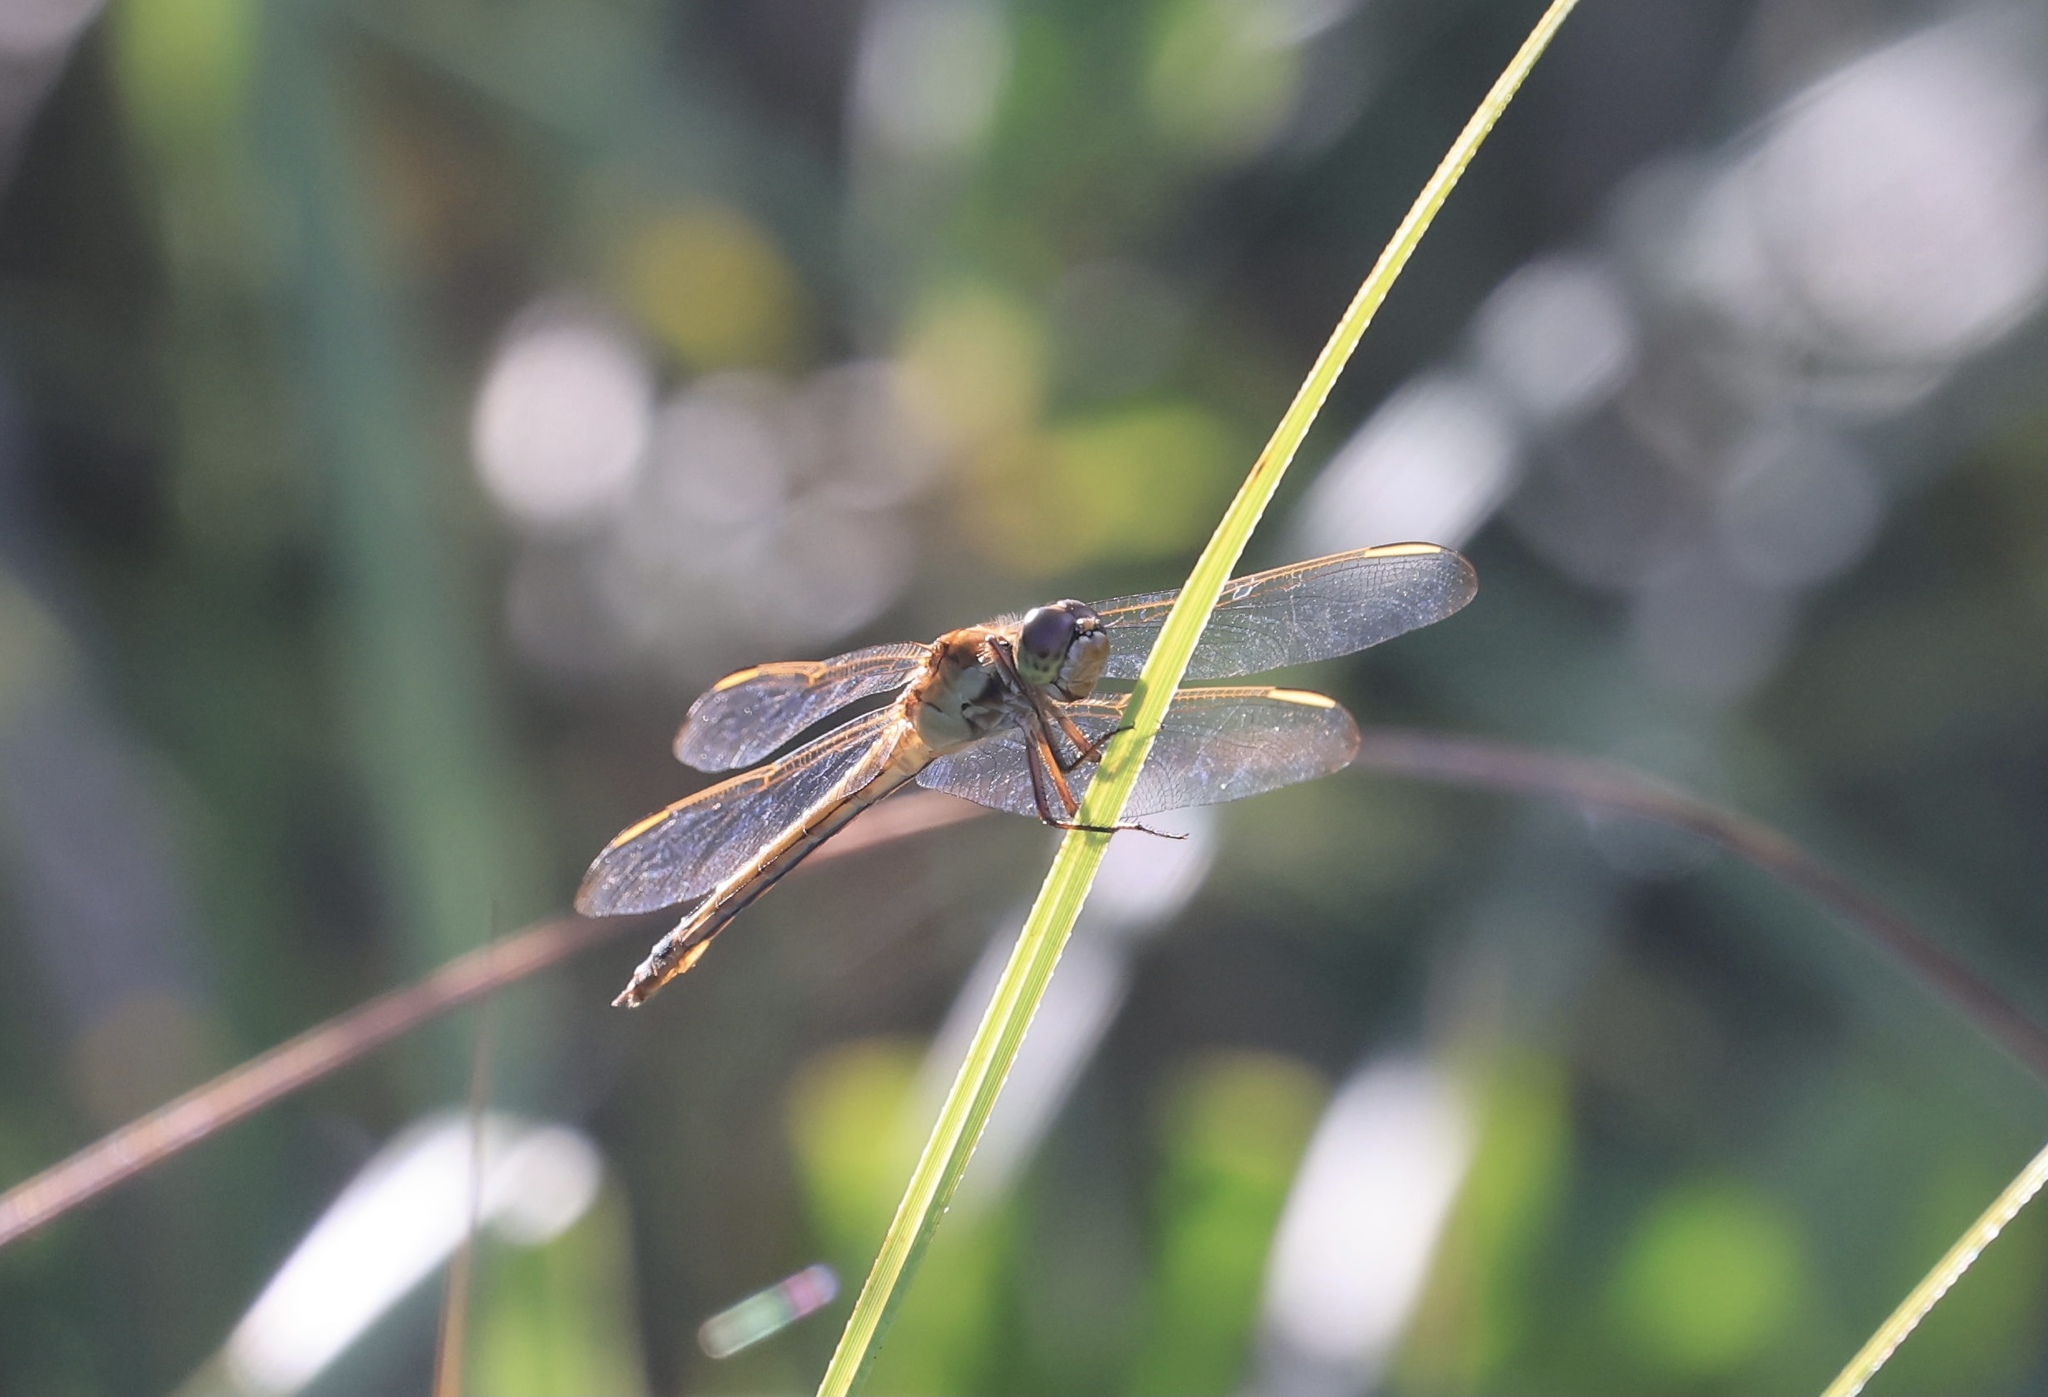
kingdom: Animalia
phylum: Arthropoda
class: Insecta
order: Odonata
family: Libellulidae
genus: Libellula
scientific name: Libellula needhami
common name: Needham's skimmer
